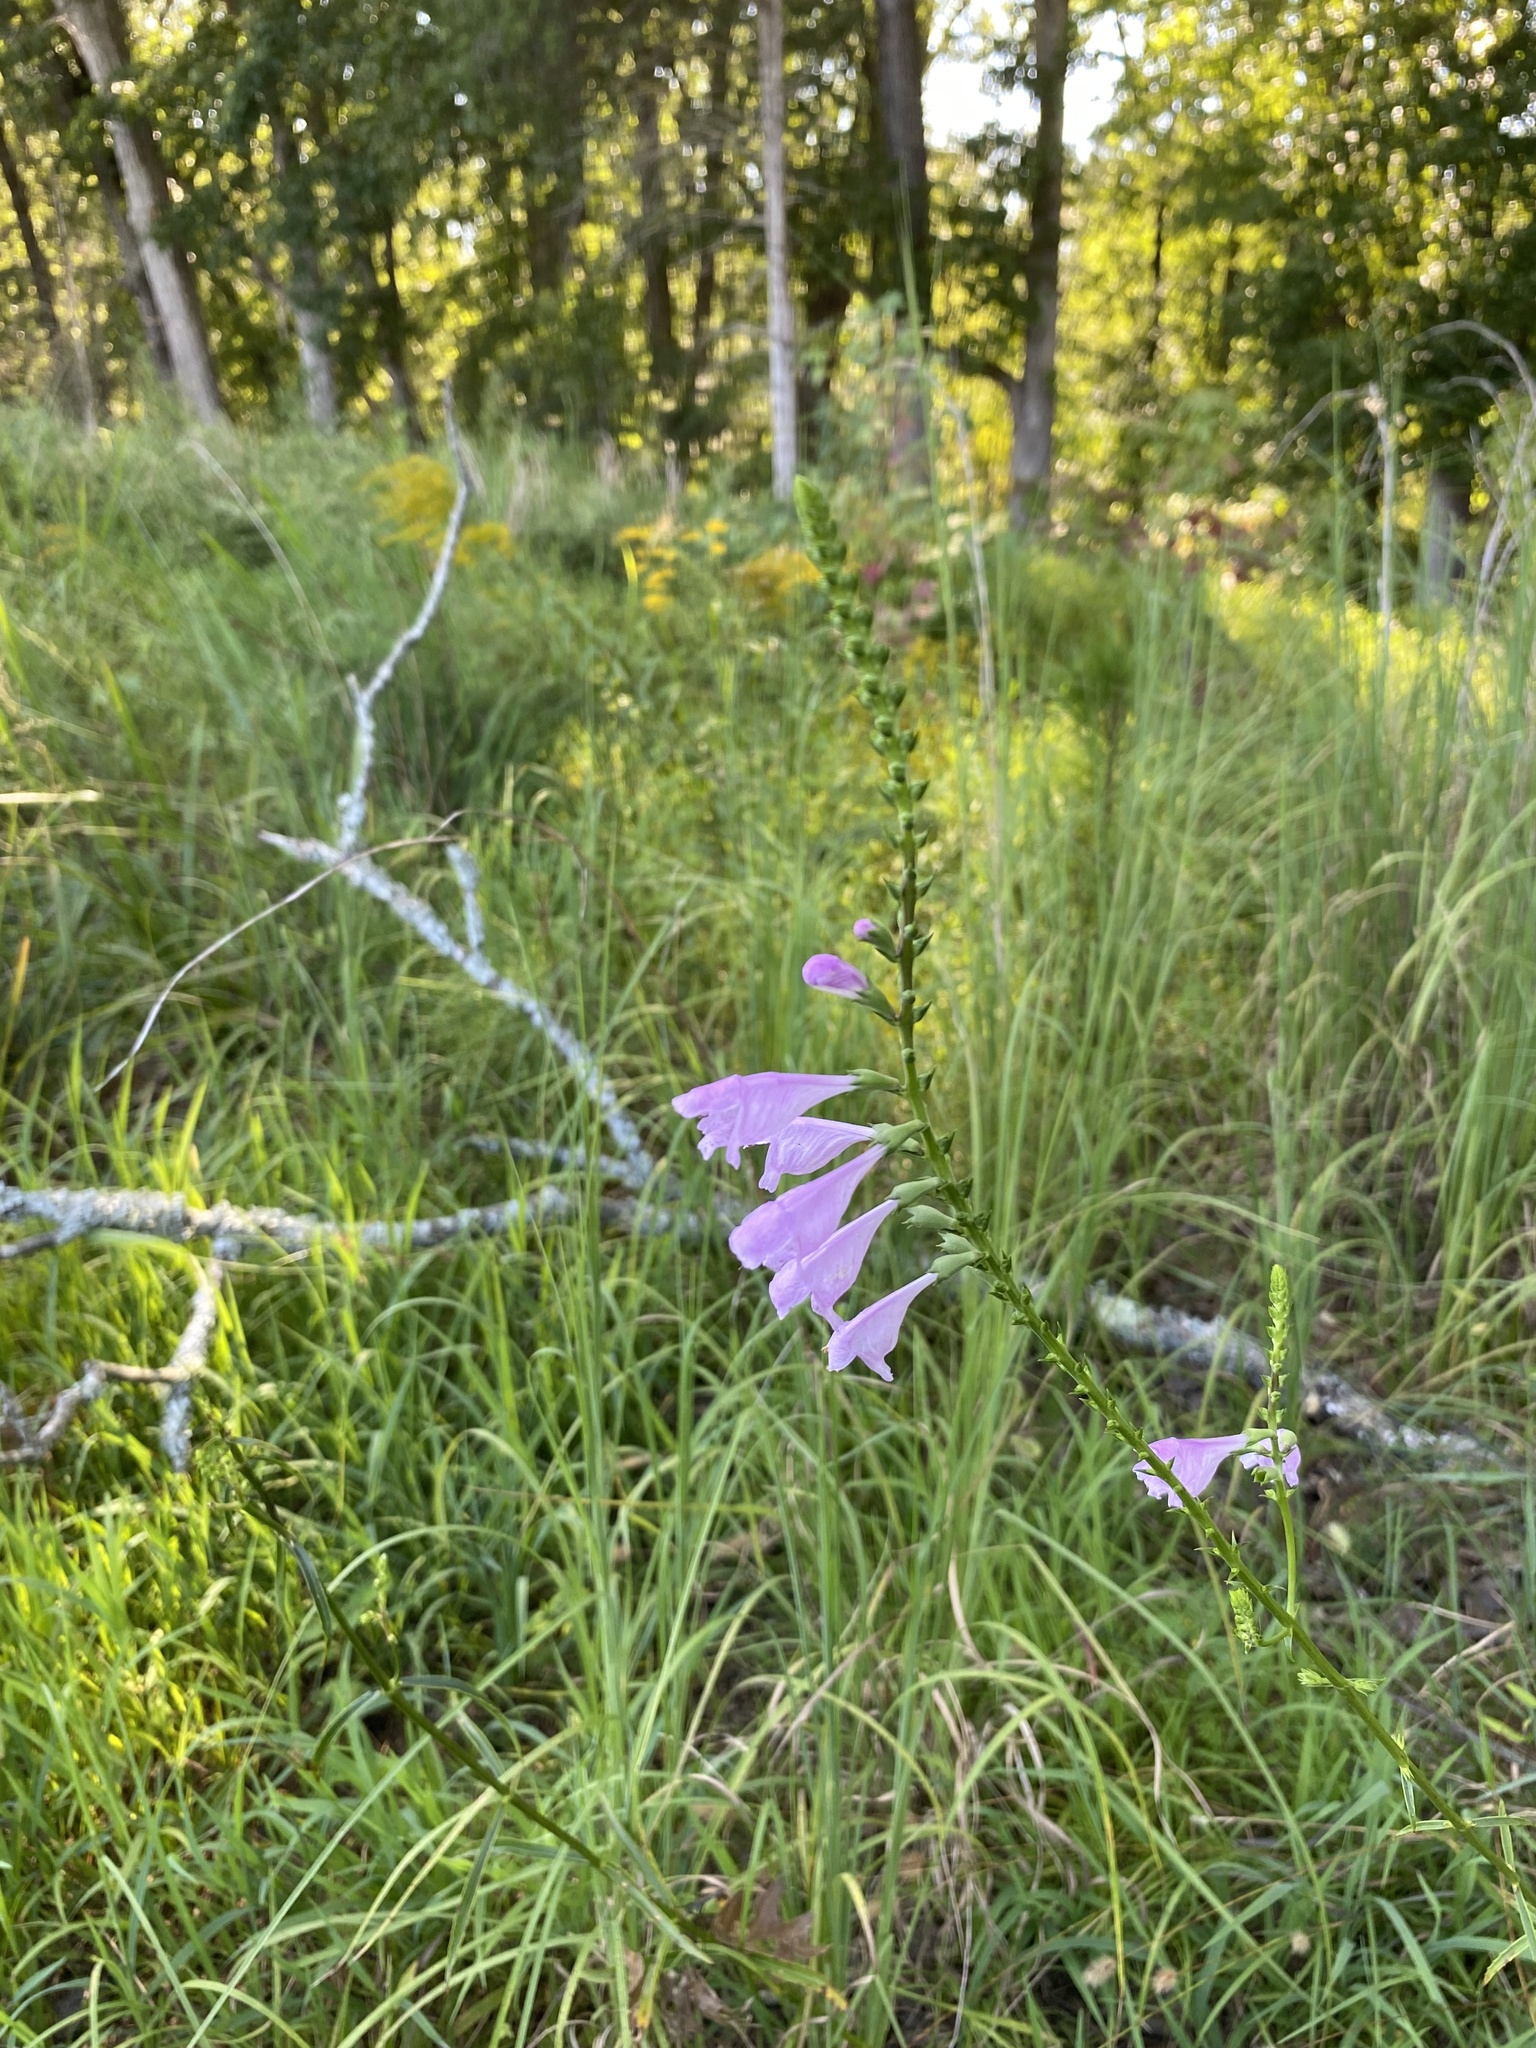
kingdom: Plantae
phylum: Tracheophyta
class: Magnoliopsida
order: Lamiales
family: Lamiaceae
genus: Physostegia
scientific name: Physostegia virginiana
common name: Obedient-plant
